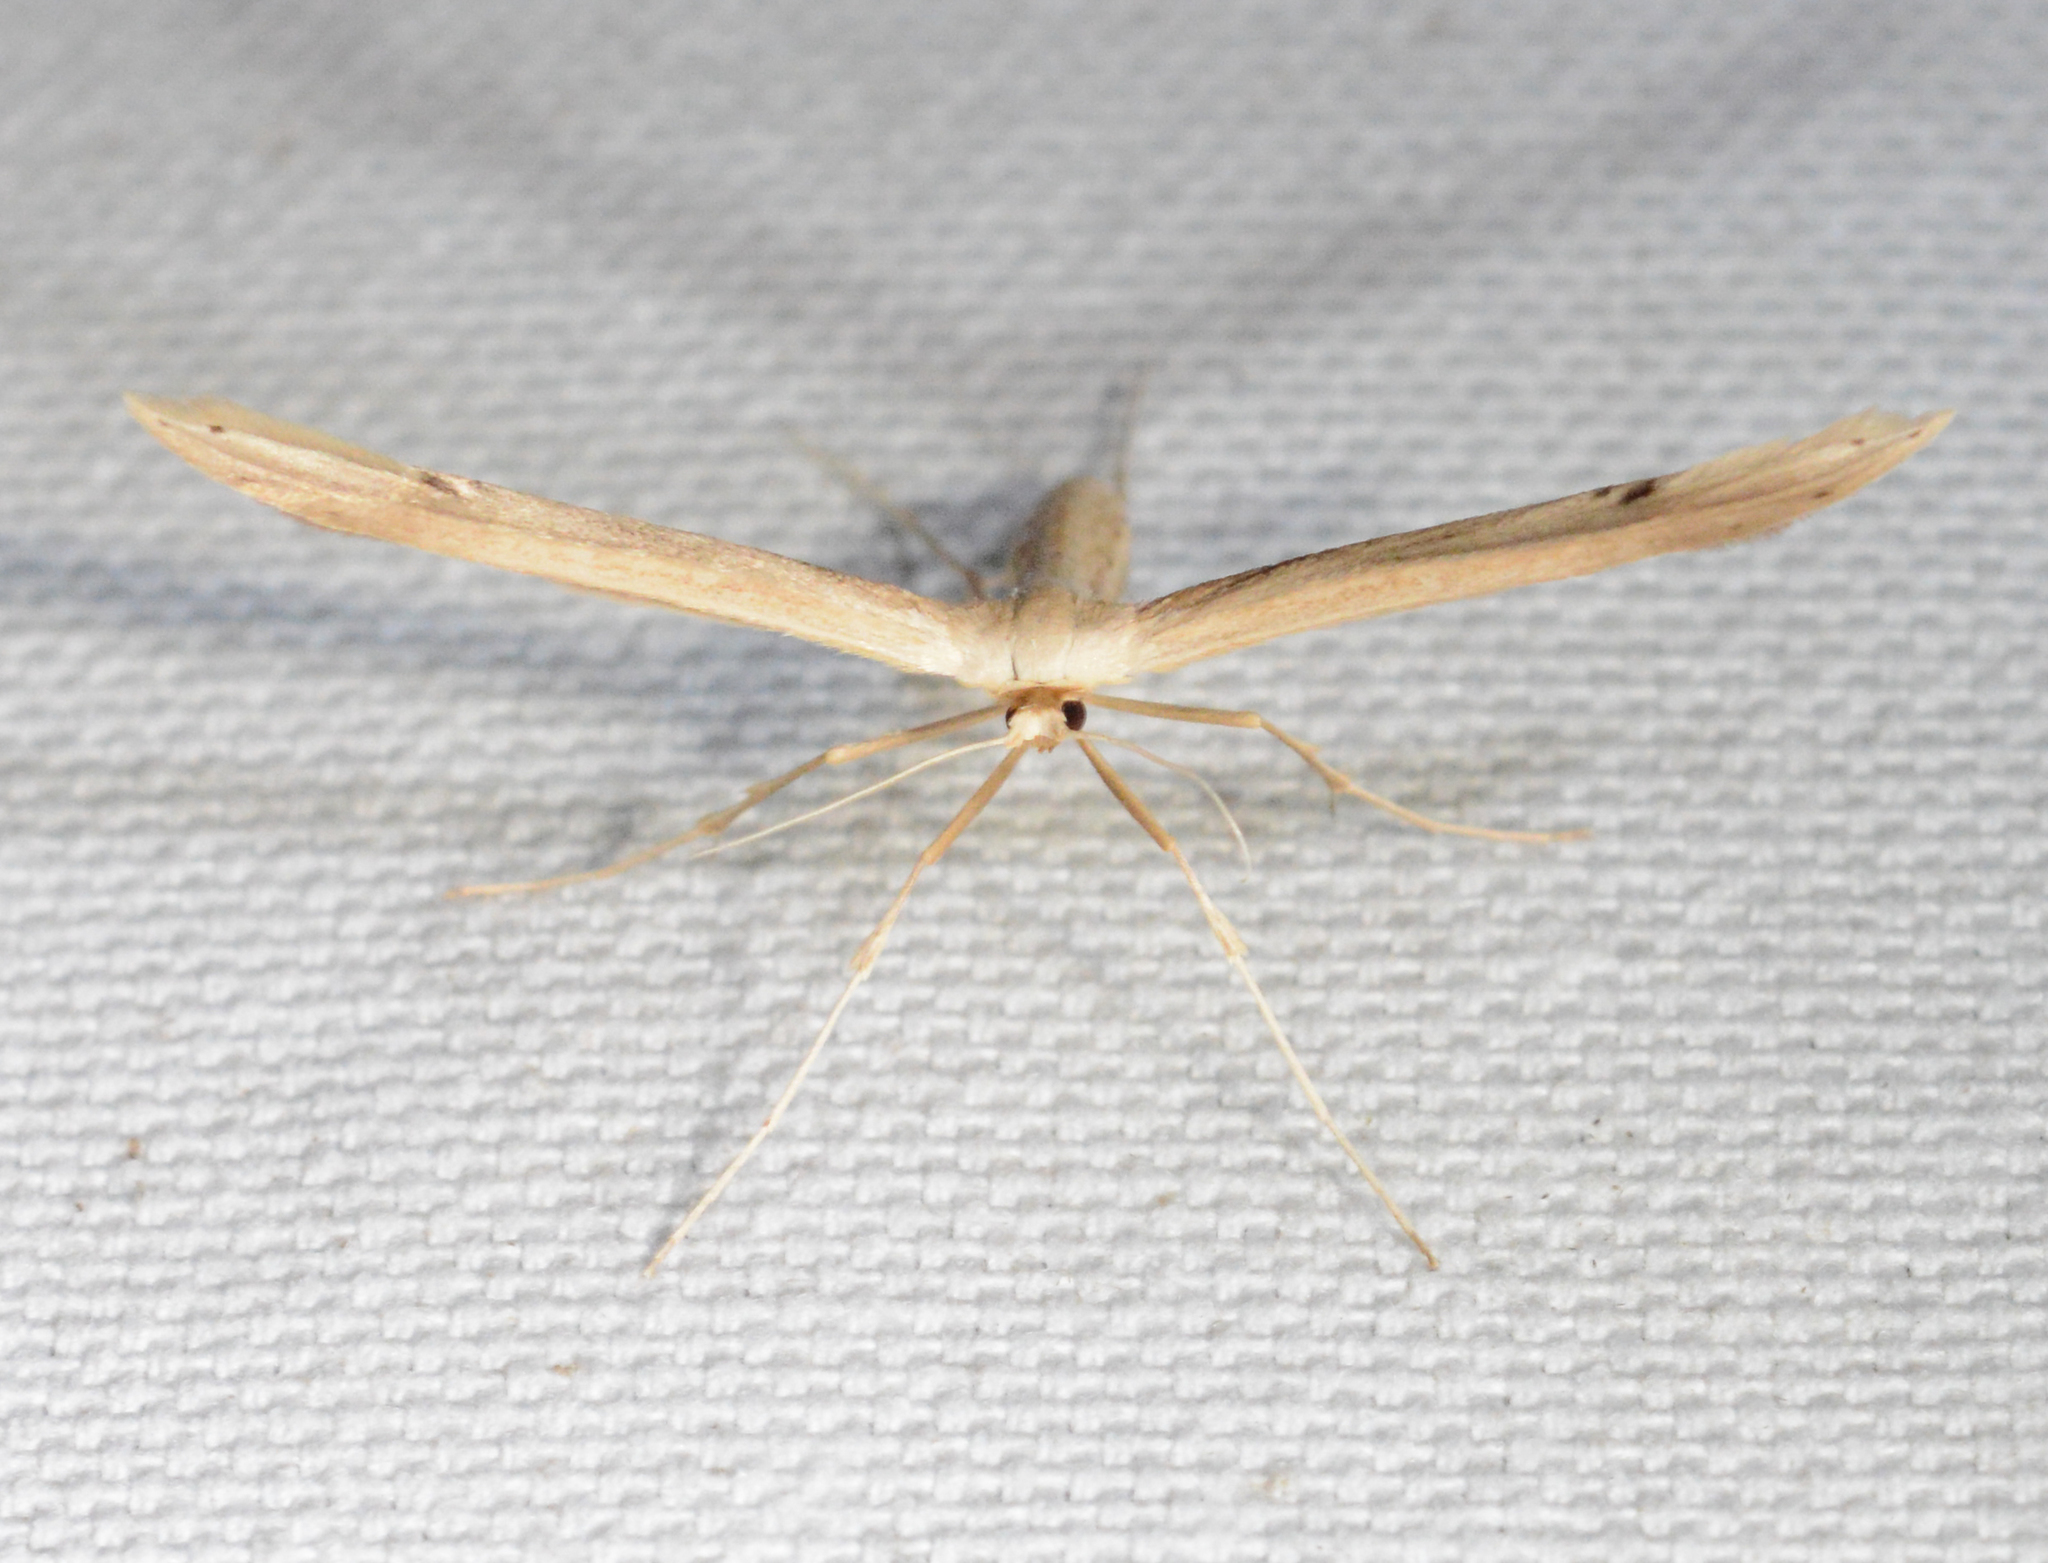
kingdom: Animalia
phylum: Arthropoda
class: Insecta
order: Lepidoptera
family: Pterophoridae
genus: Hellinsia
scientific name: Hellinsia balanotes
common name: Baccharis borer
